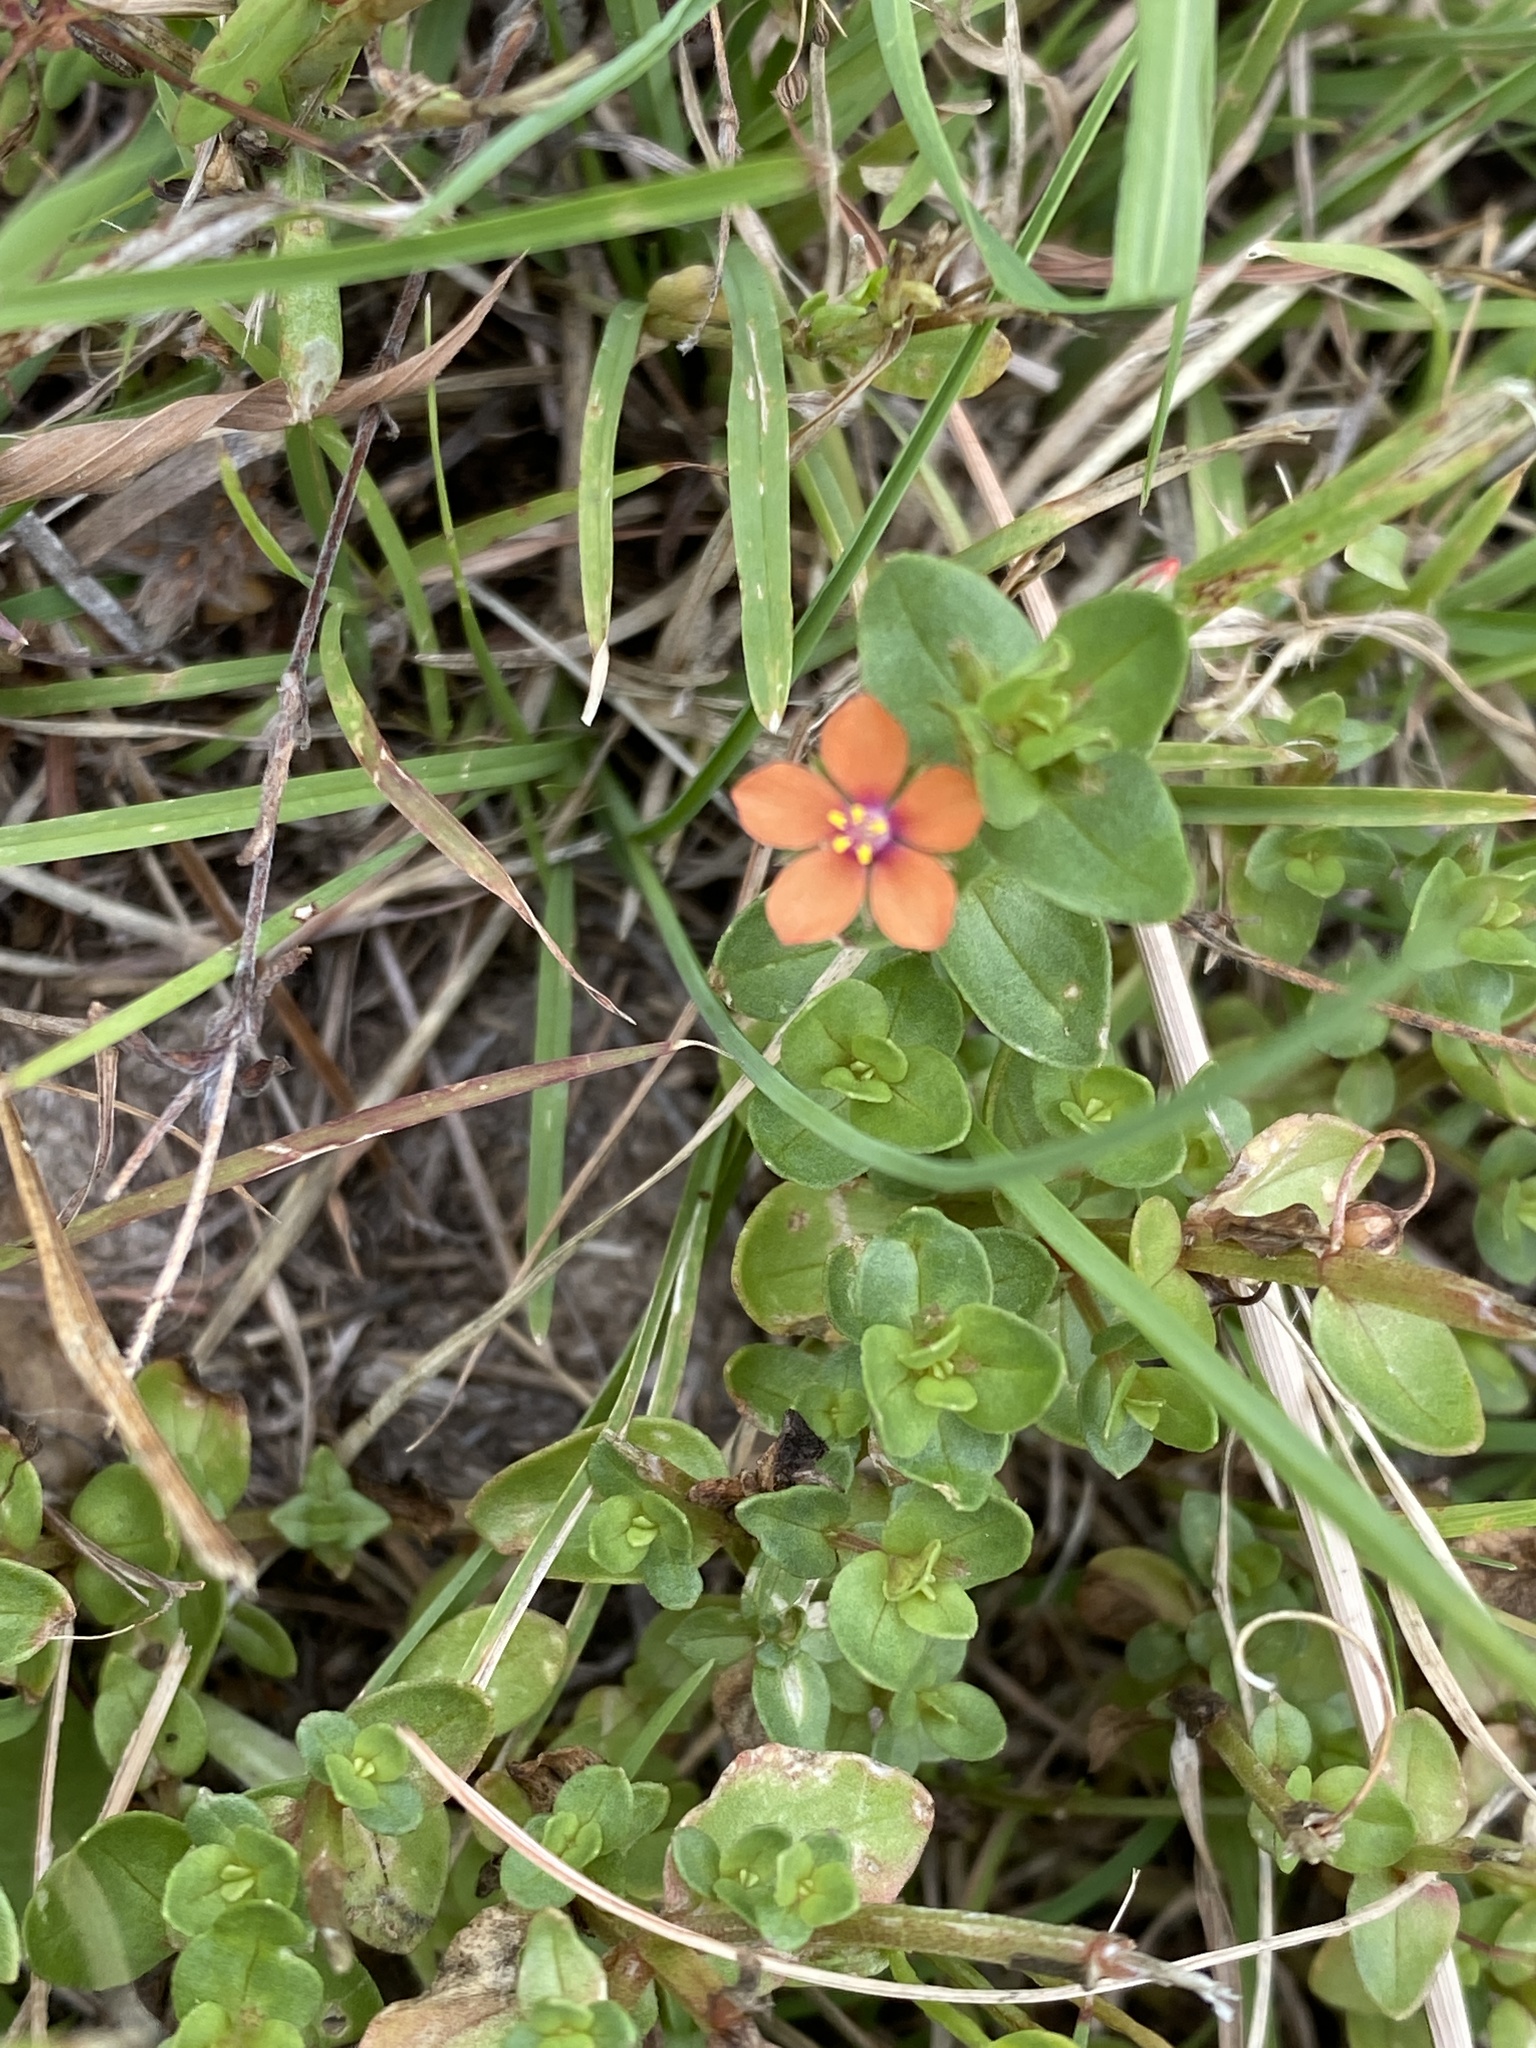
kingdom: Plantae
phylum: Tracheophyta
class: Magnoliopsida
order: Ericales
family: Primulaceae
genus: Lysimachia
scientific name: Lysimachia arvensis
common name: Scarlet pimpernel
